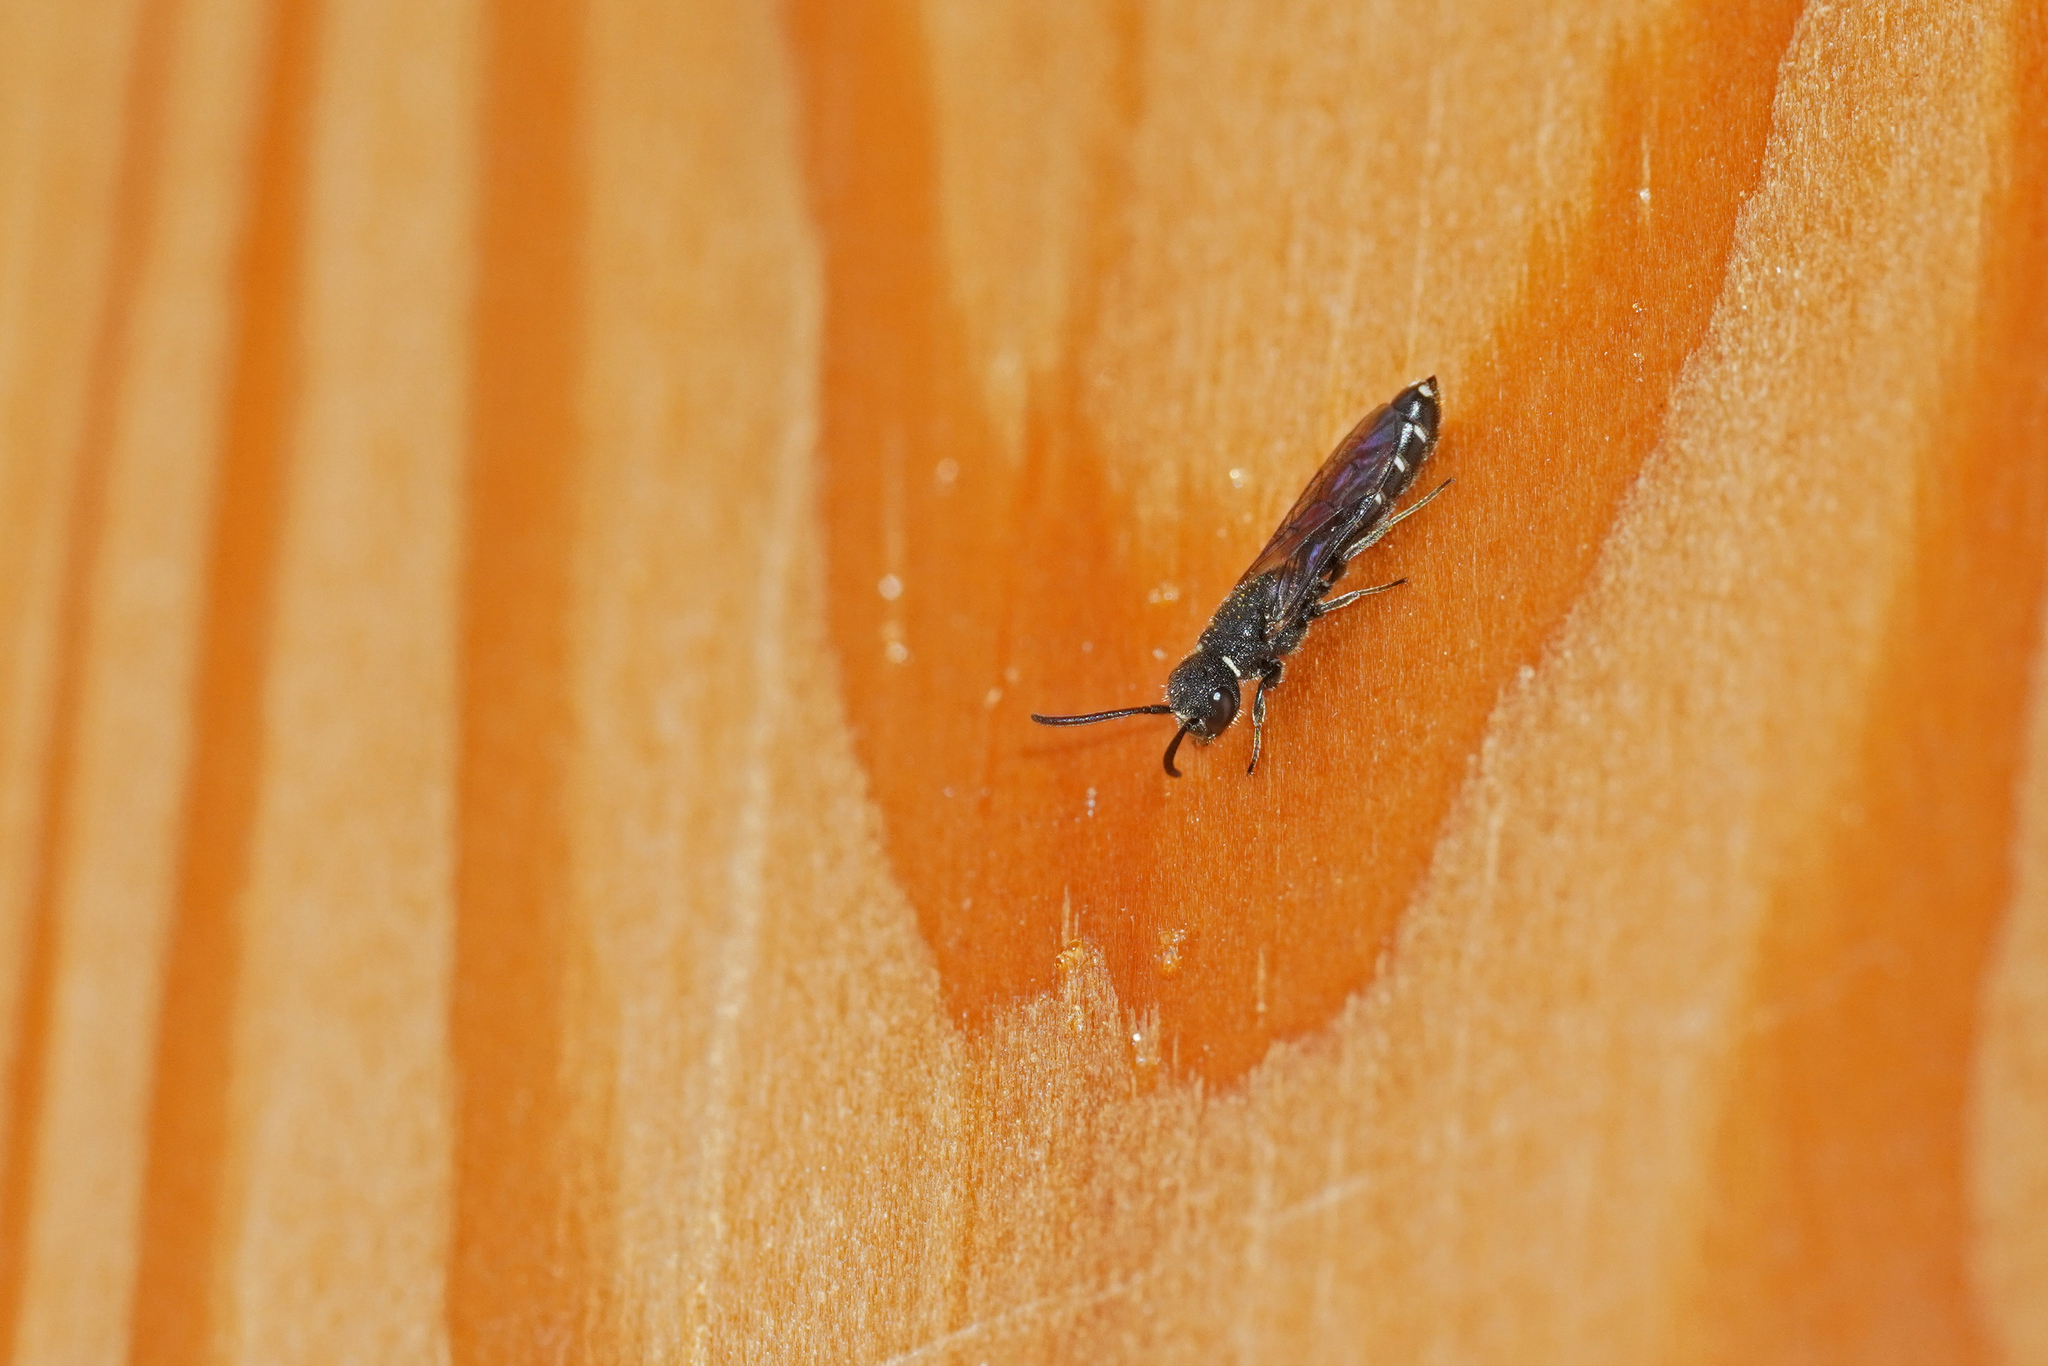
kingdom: Animalia
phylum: Arthropoda
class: Insecta
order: Hymenoptera
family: Sapygidae
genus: Sapygina
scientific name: Sapygina decemguttata
